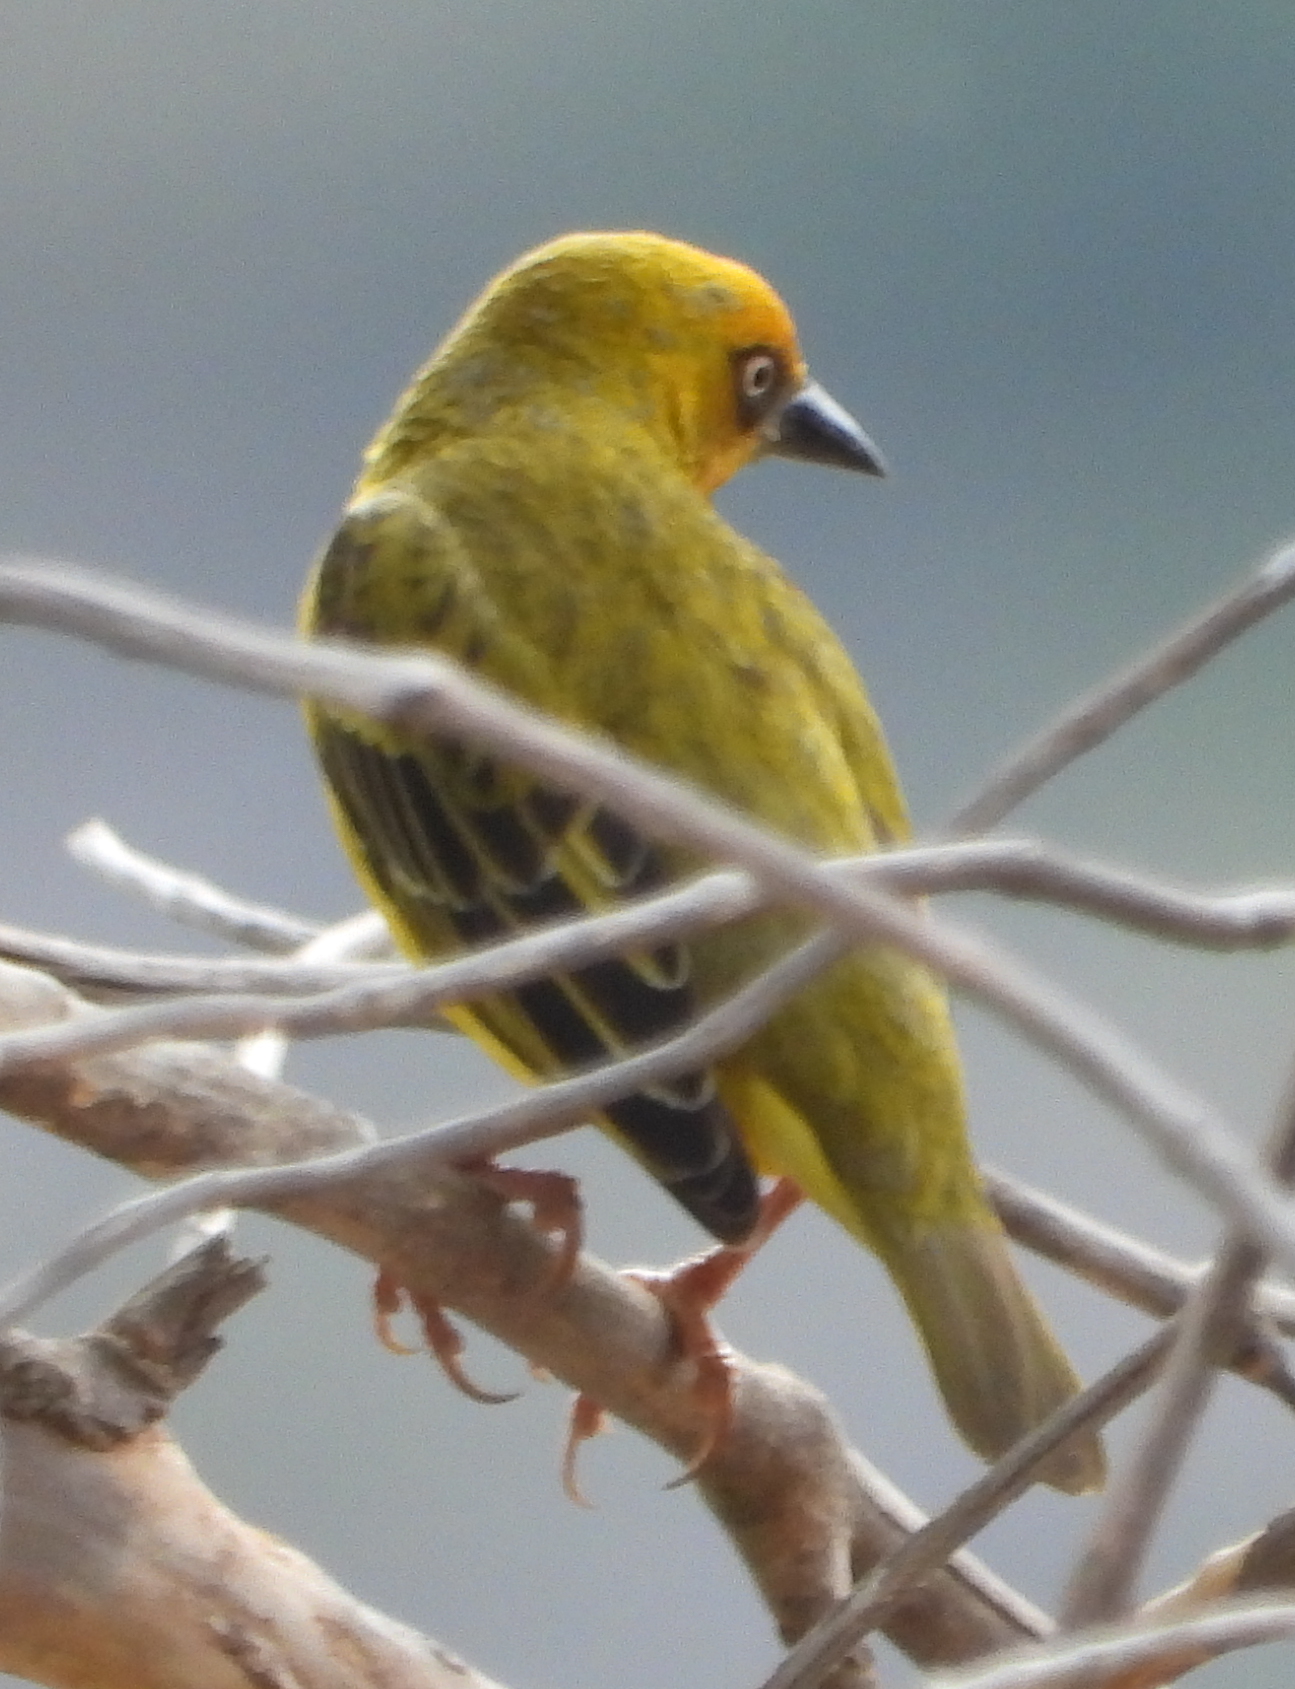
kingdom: Animalia
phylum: Chordata
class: Aves
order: Passeriformes
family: Ploceidae
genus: Ploceus
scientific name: Ploceus capensis
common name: Cape weaver
